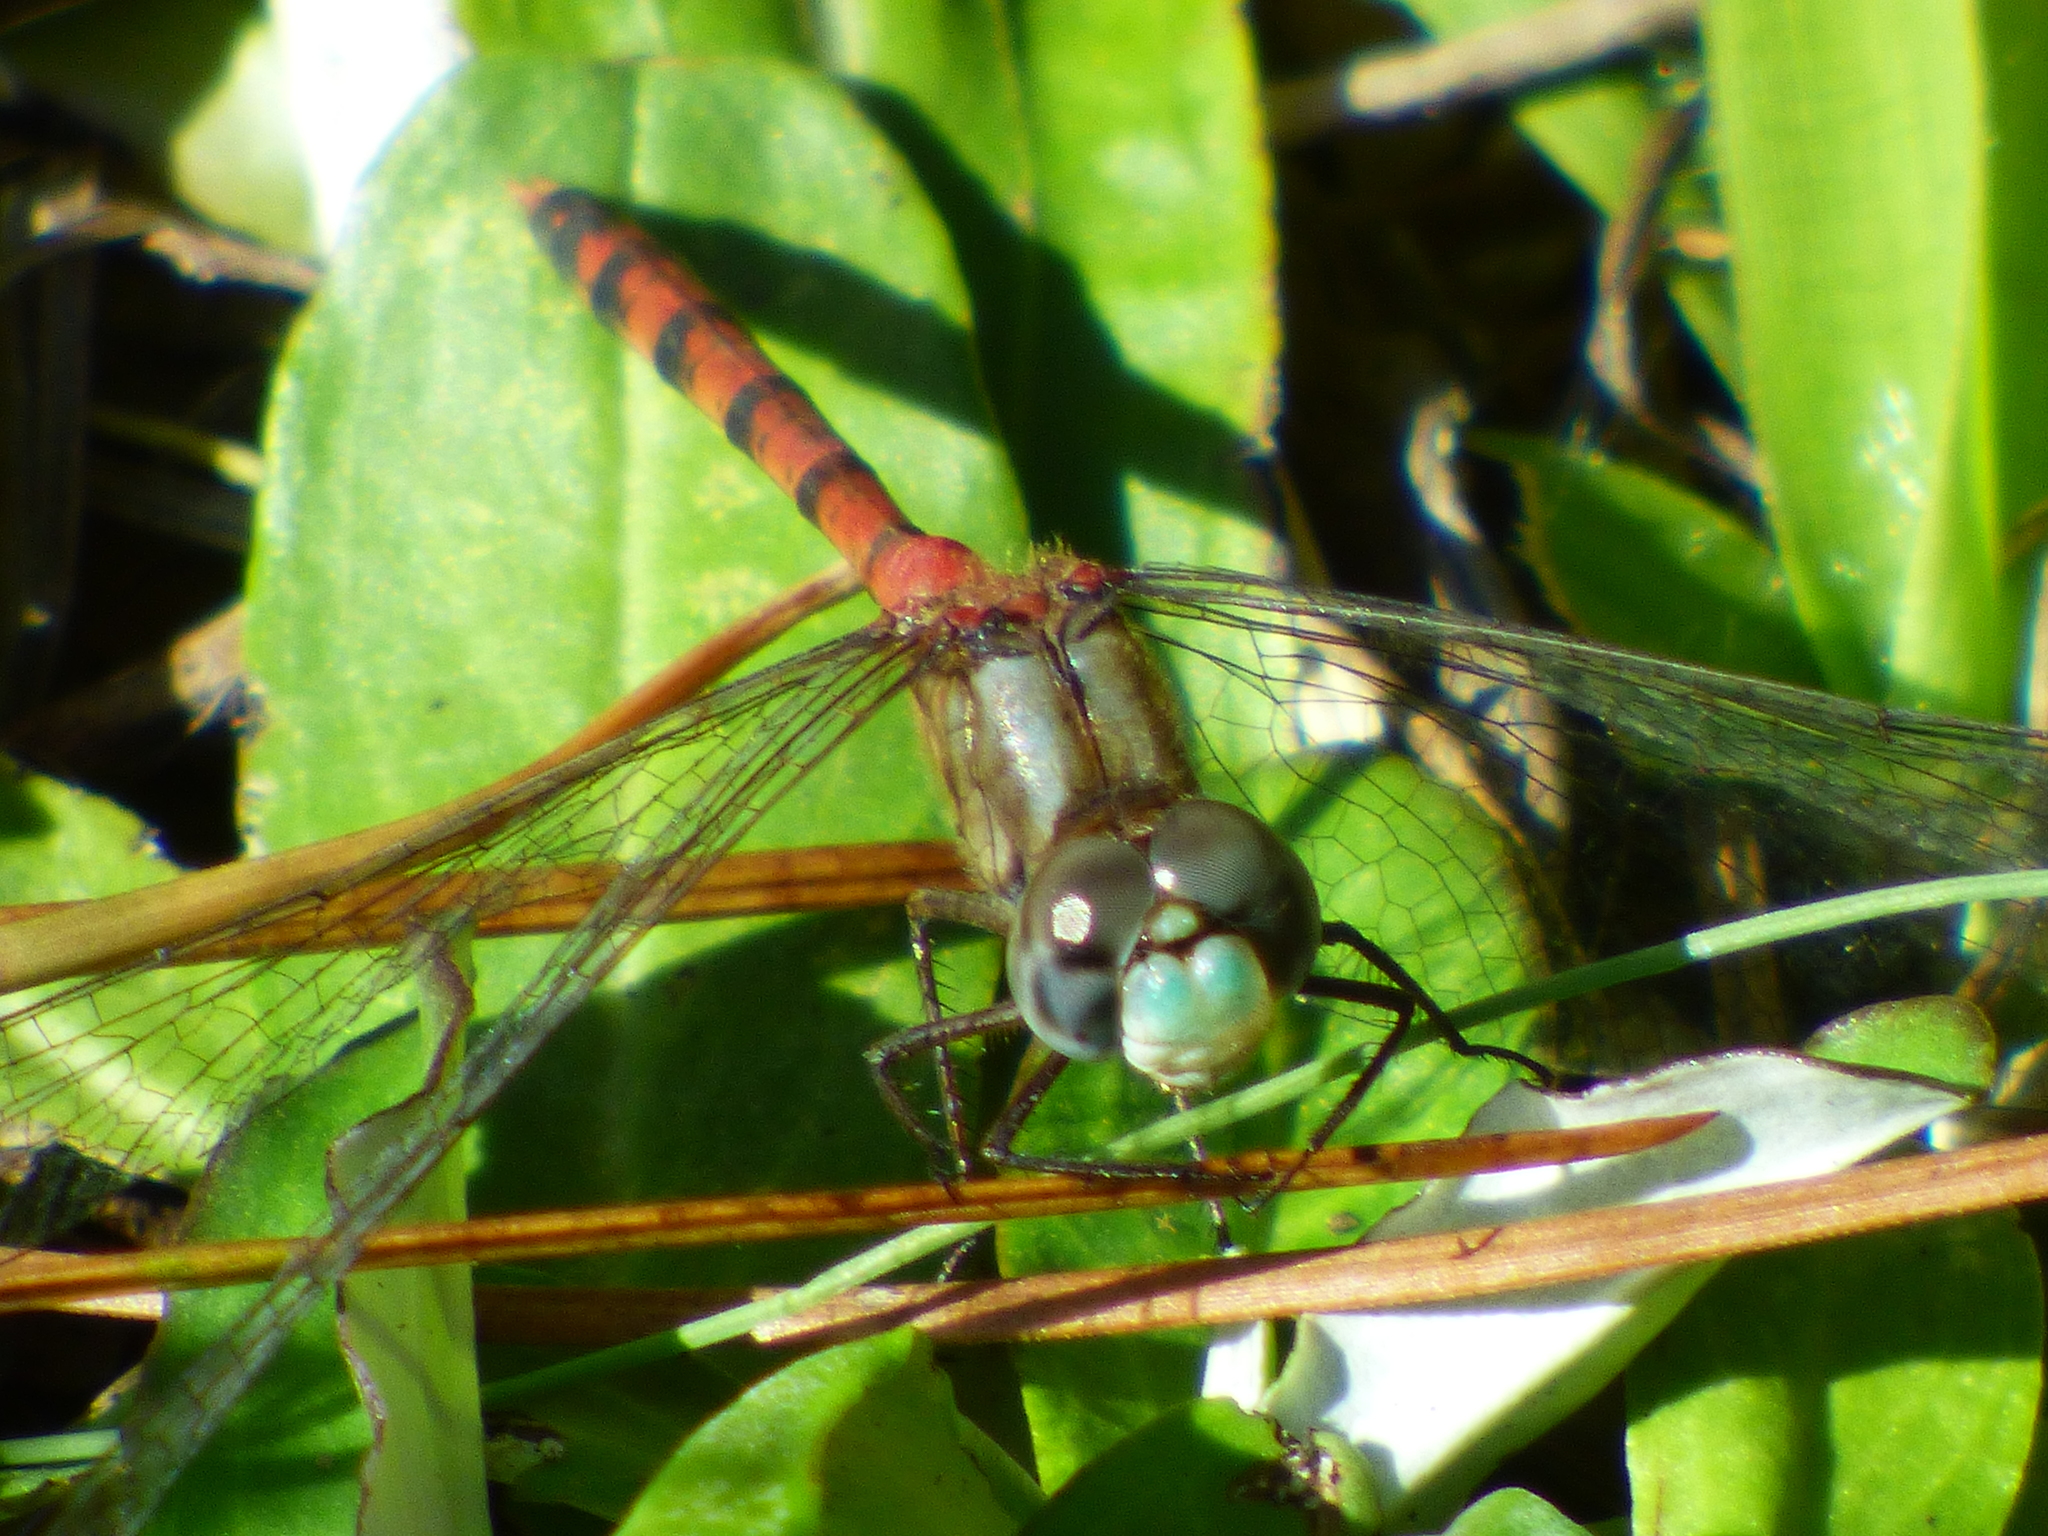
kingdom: Animalia
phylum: Arthropoda
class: Insecta
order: Odonata
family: Libellulidae
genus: Sympetrum
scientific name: Sympetrum ambiguum
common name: Blue-faced meadowhawk
